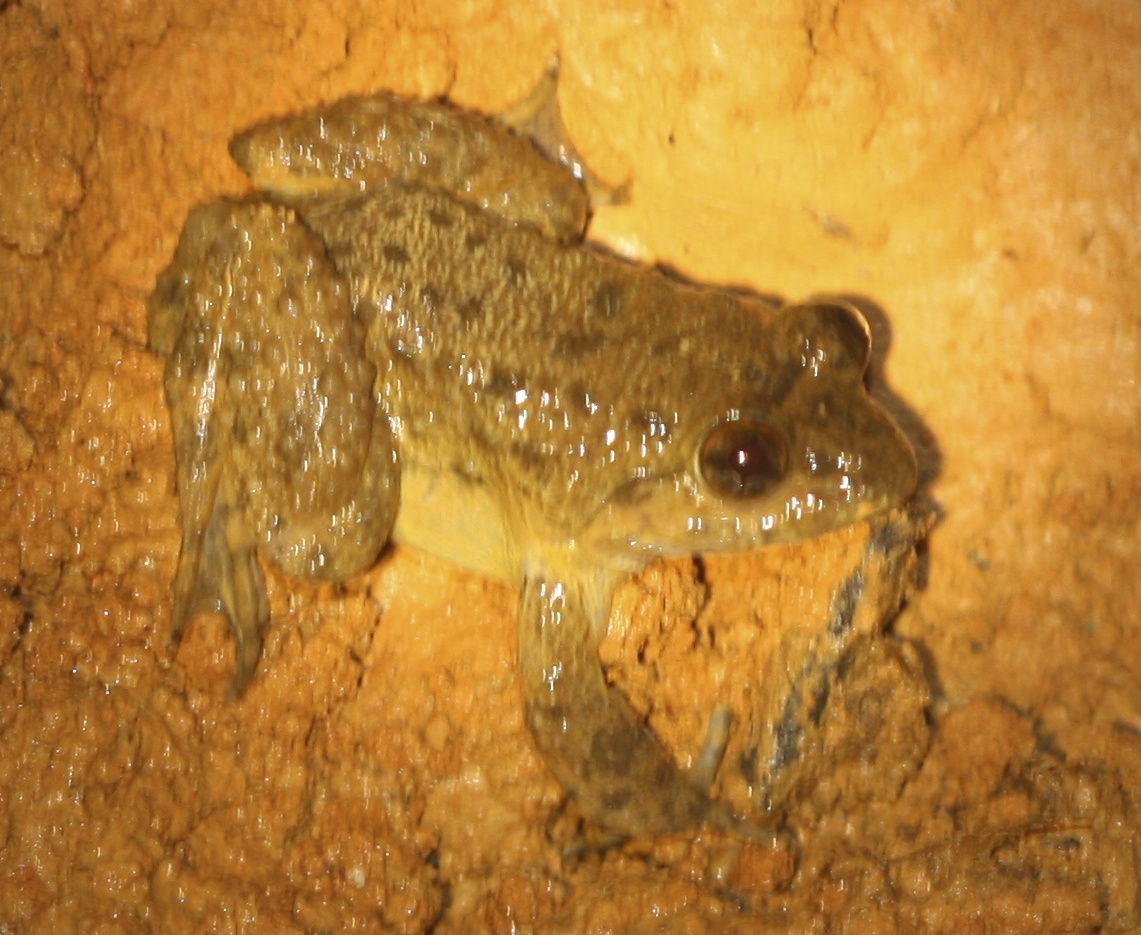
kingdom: Animalia
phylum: Chordata
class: Amphibia
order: Anura
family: Dicroglossidae
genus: Limnonectes
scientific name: Limnonectes conspicillatus
